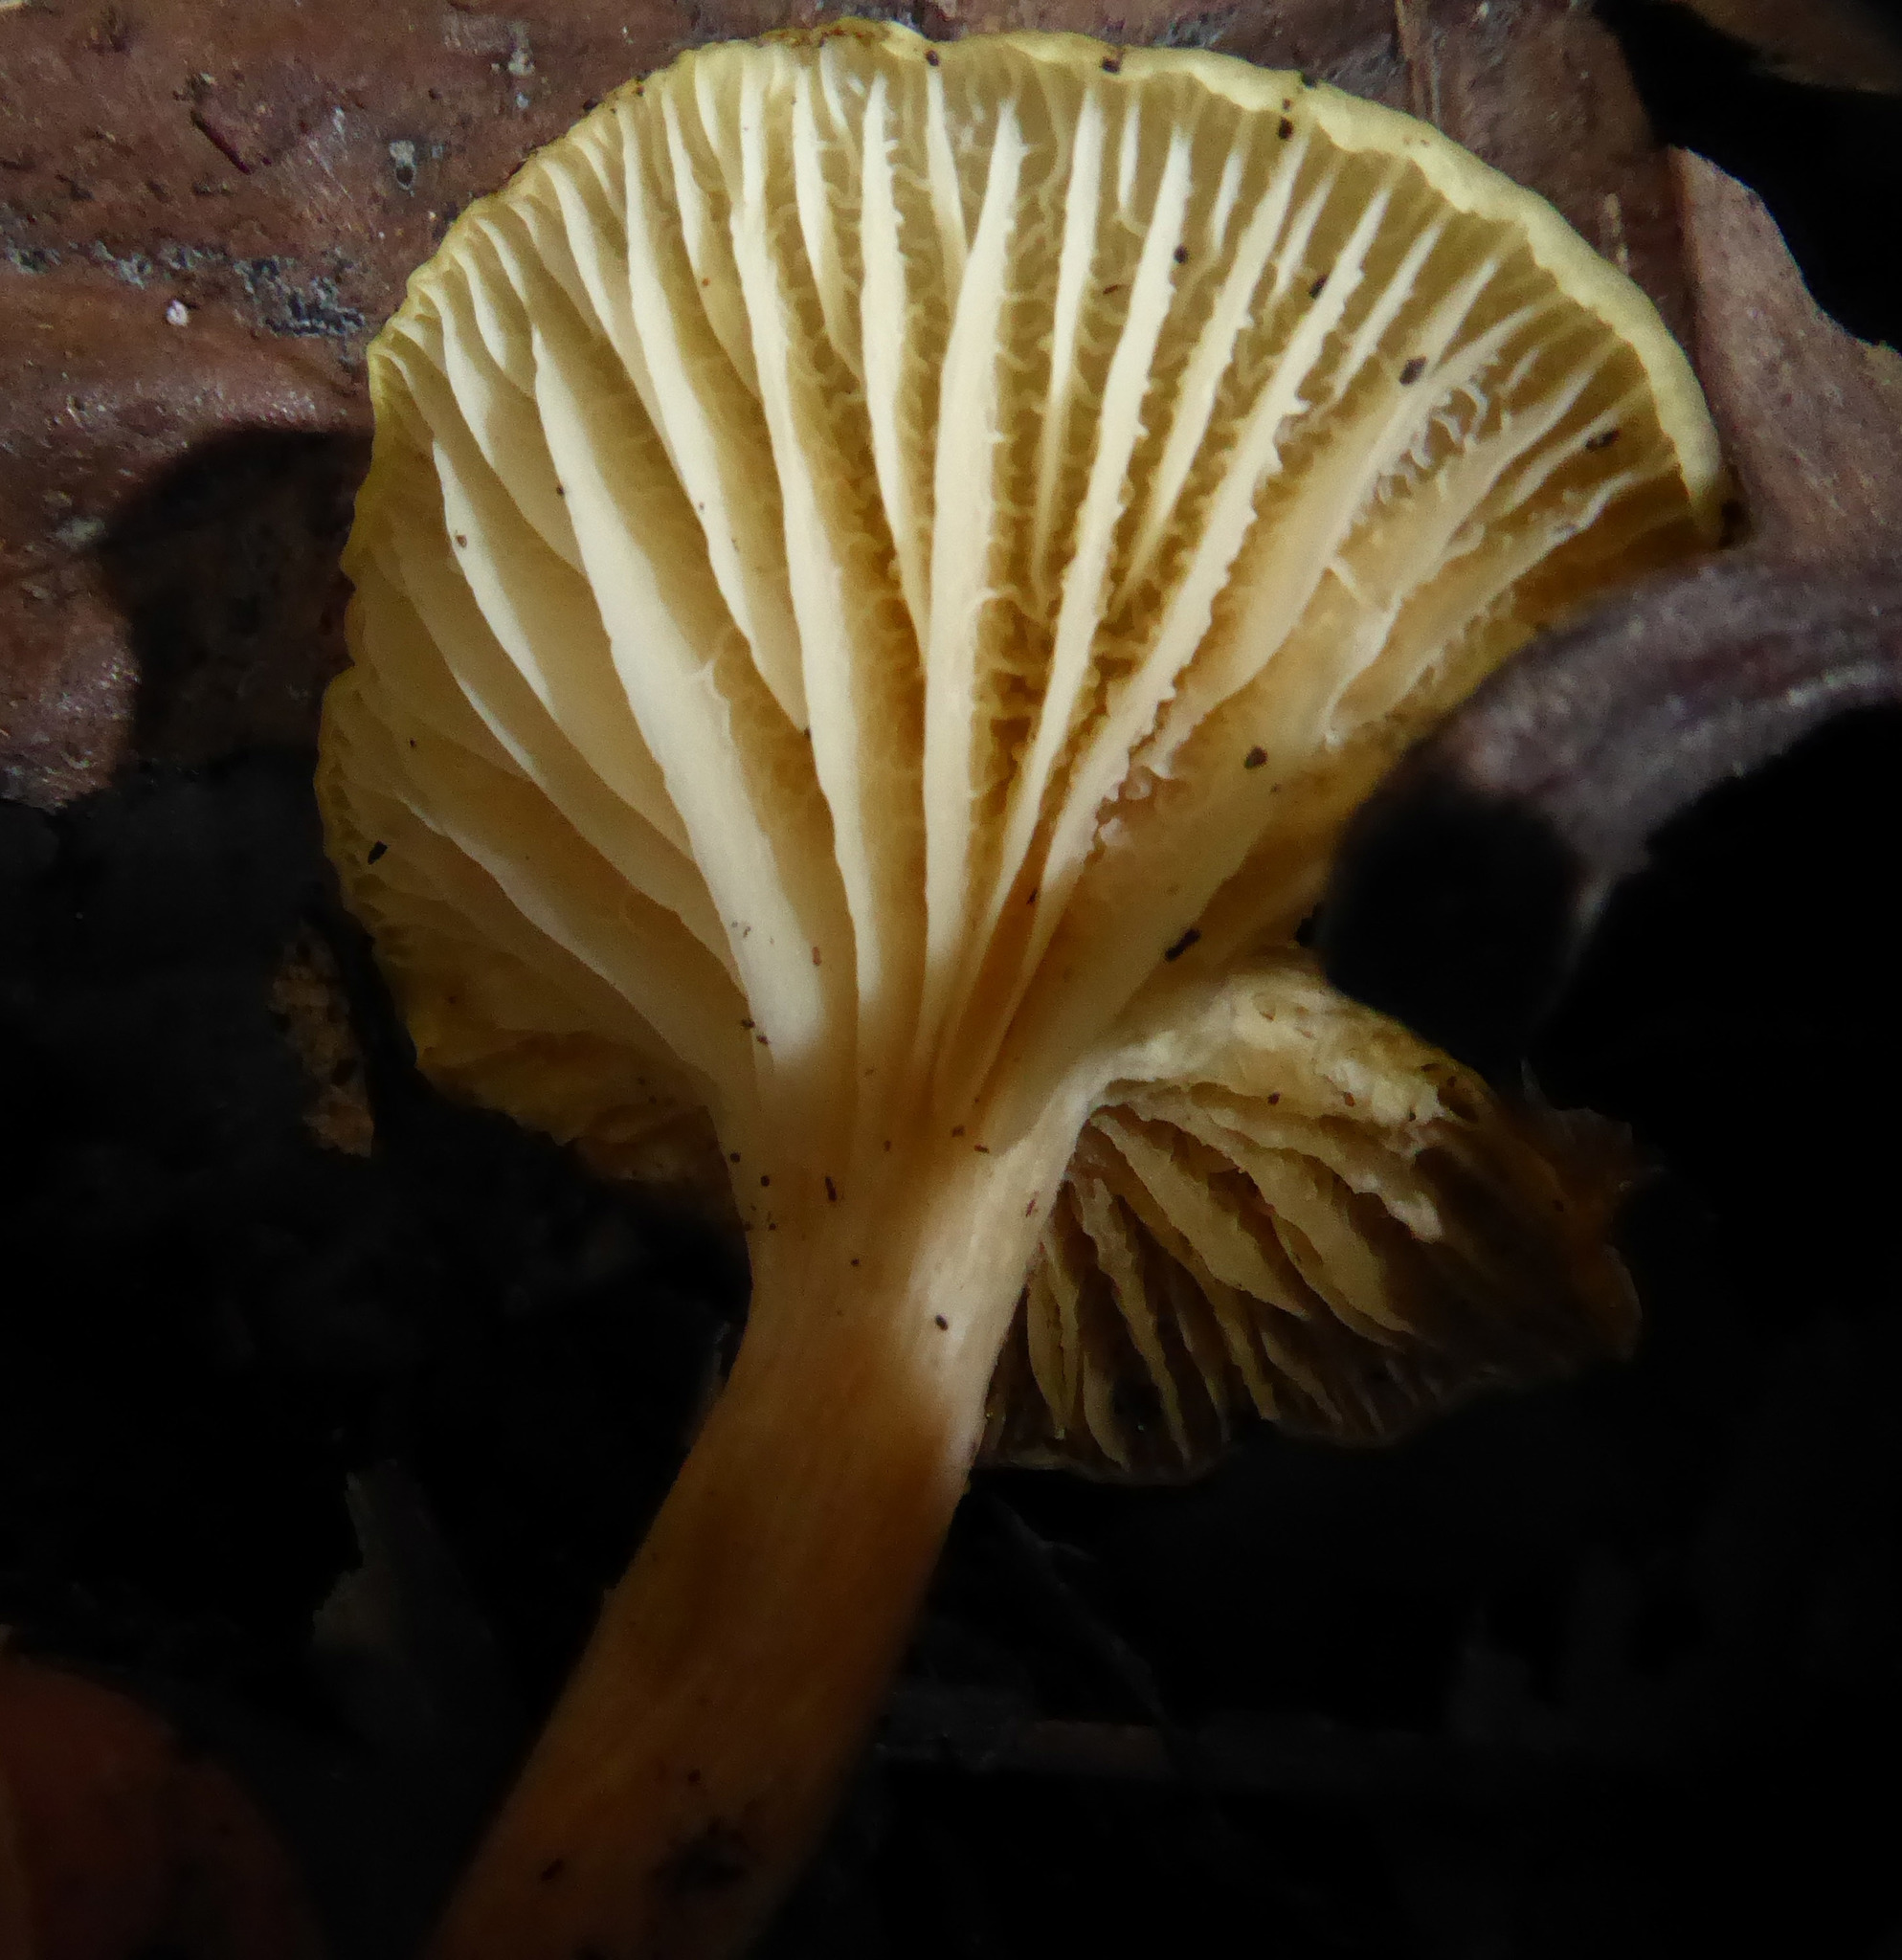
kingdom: Fungi
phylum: Basidiomycota
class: Agaricomycetes
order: Agaricales
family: Hygrophoraceae
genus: Cuphophyllus
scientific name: Cuphophyllus
